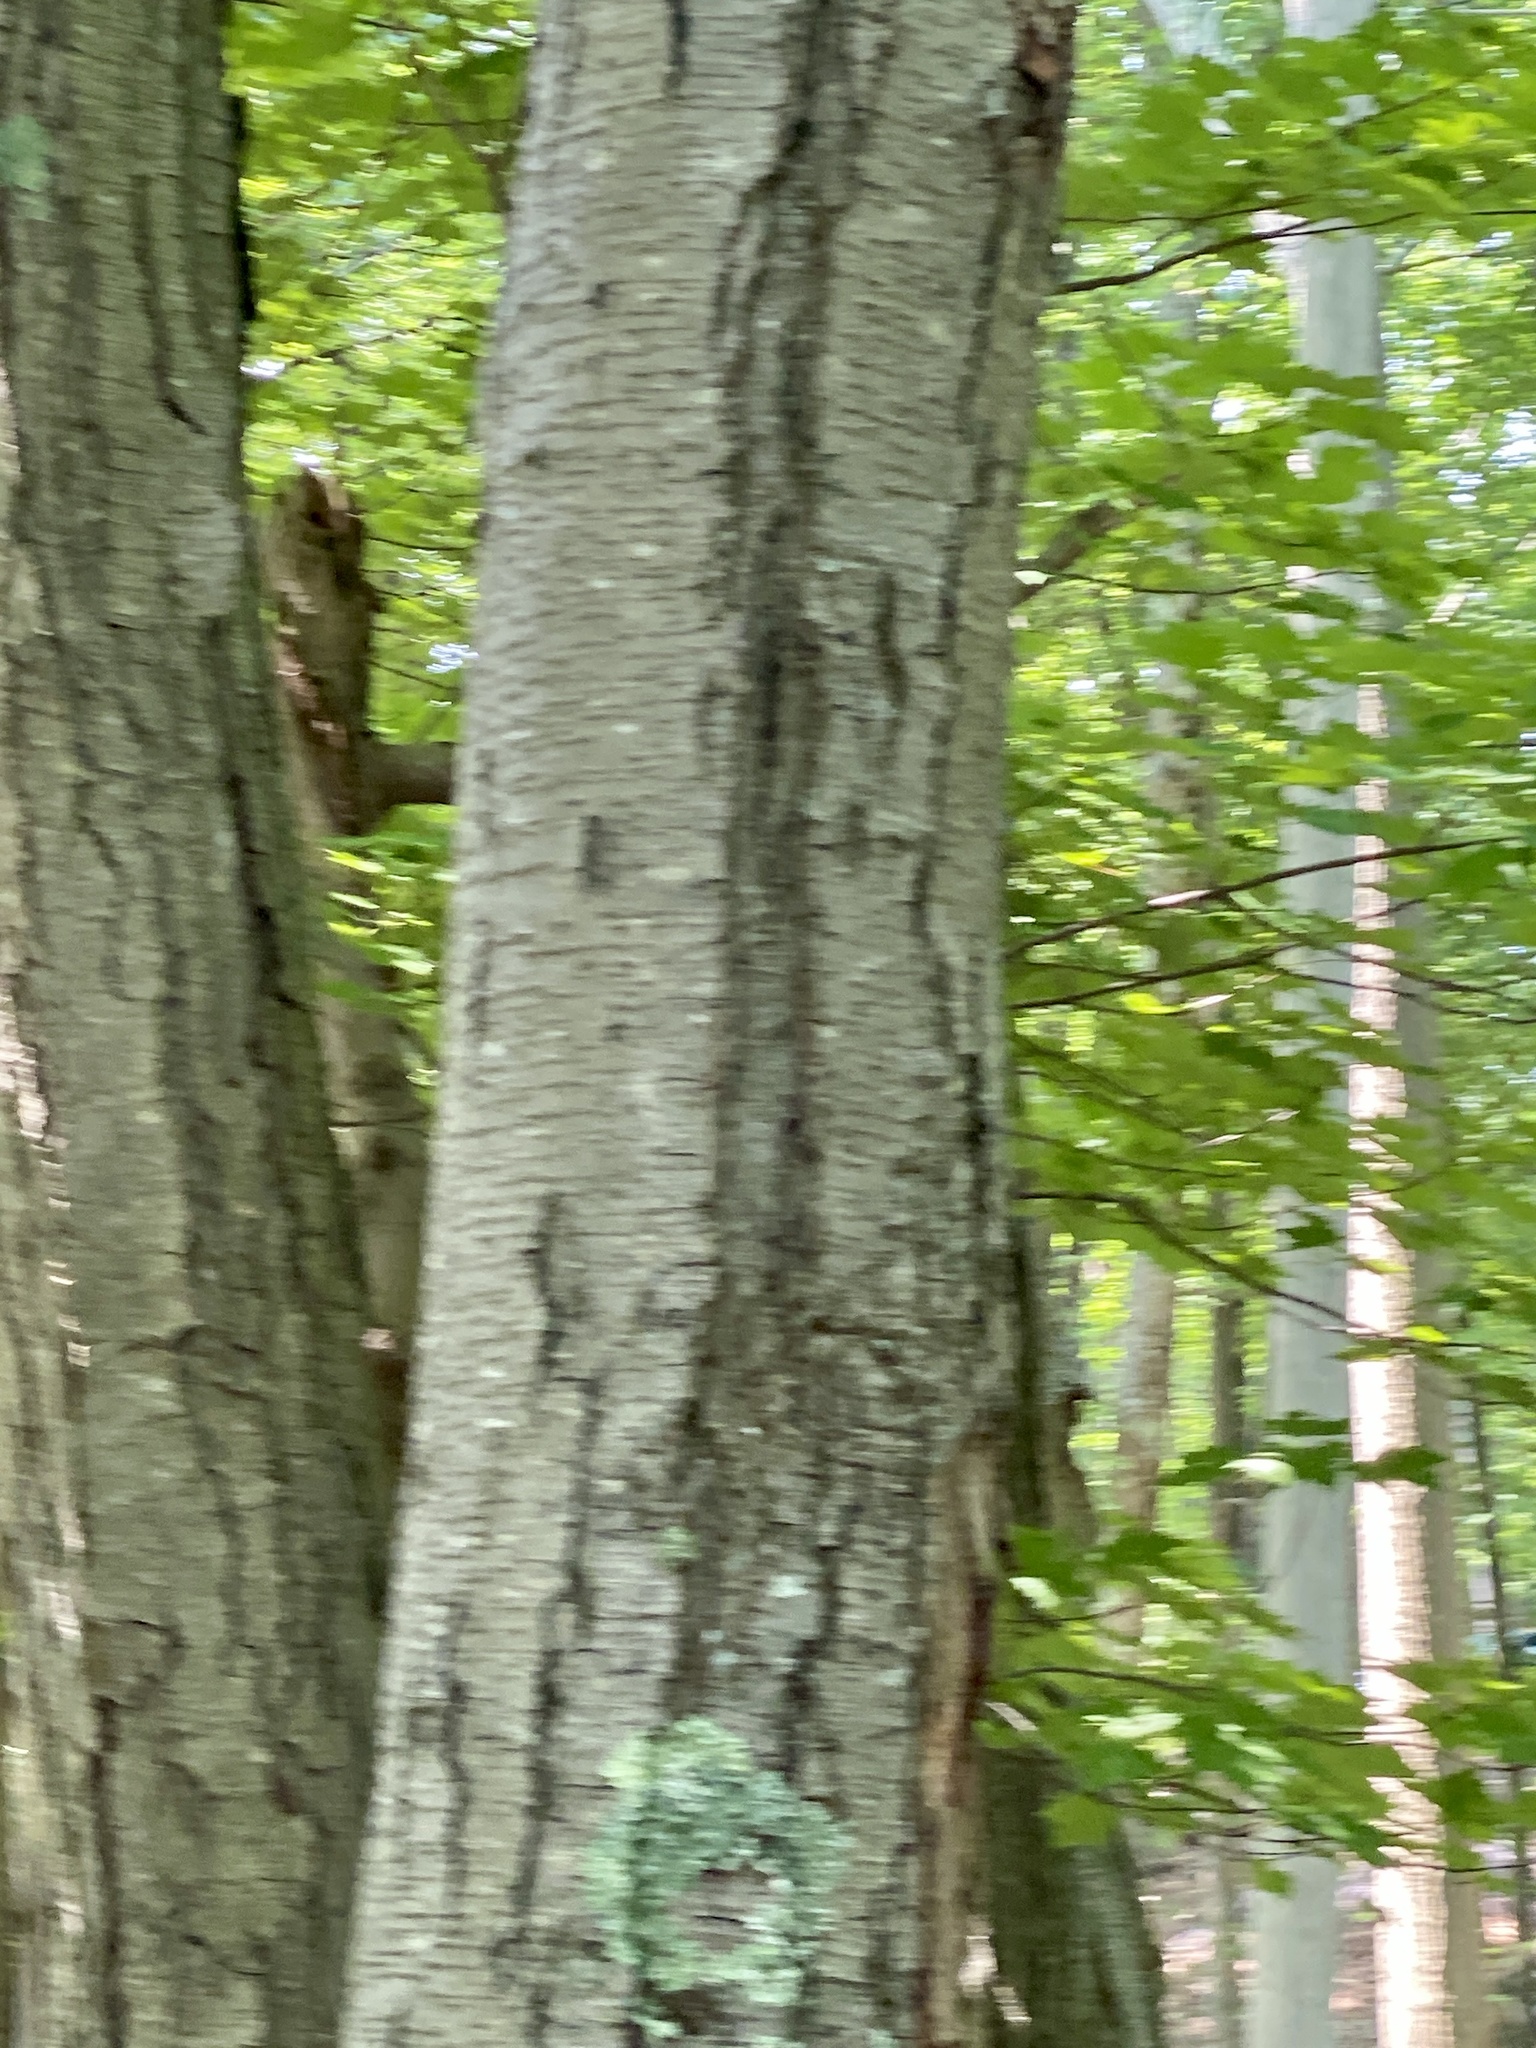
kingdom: Plantae
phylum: Tracheophyta
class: Magnoliopsida
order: Fagales
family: Betulaceae
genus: Betula
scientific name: Betula lenta
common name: Black birch
